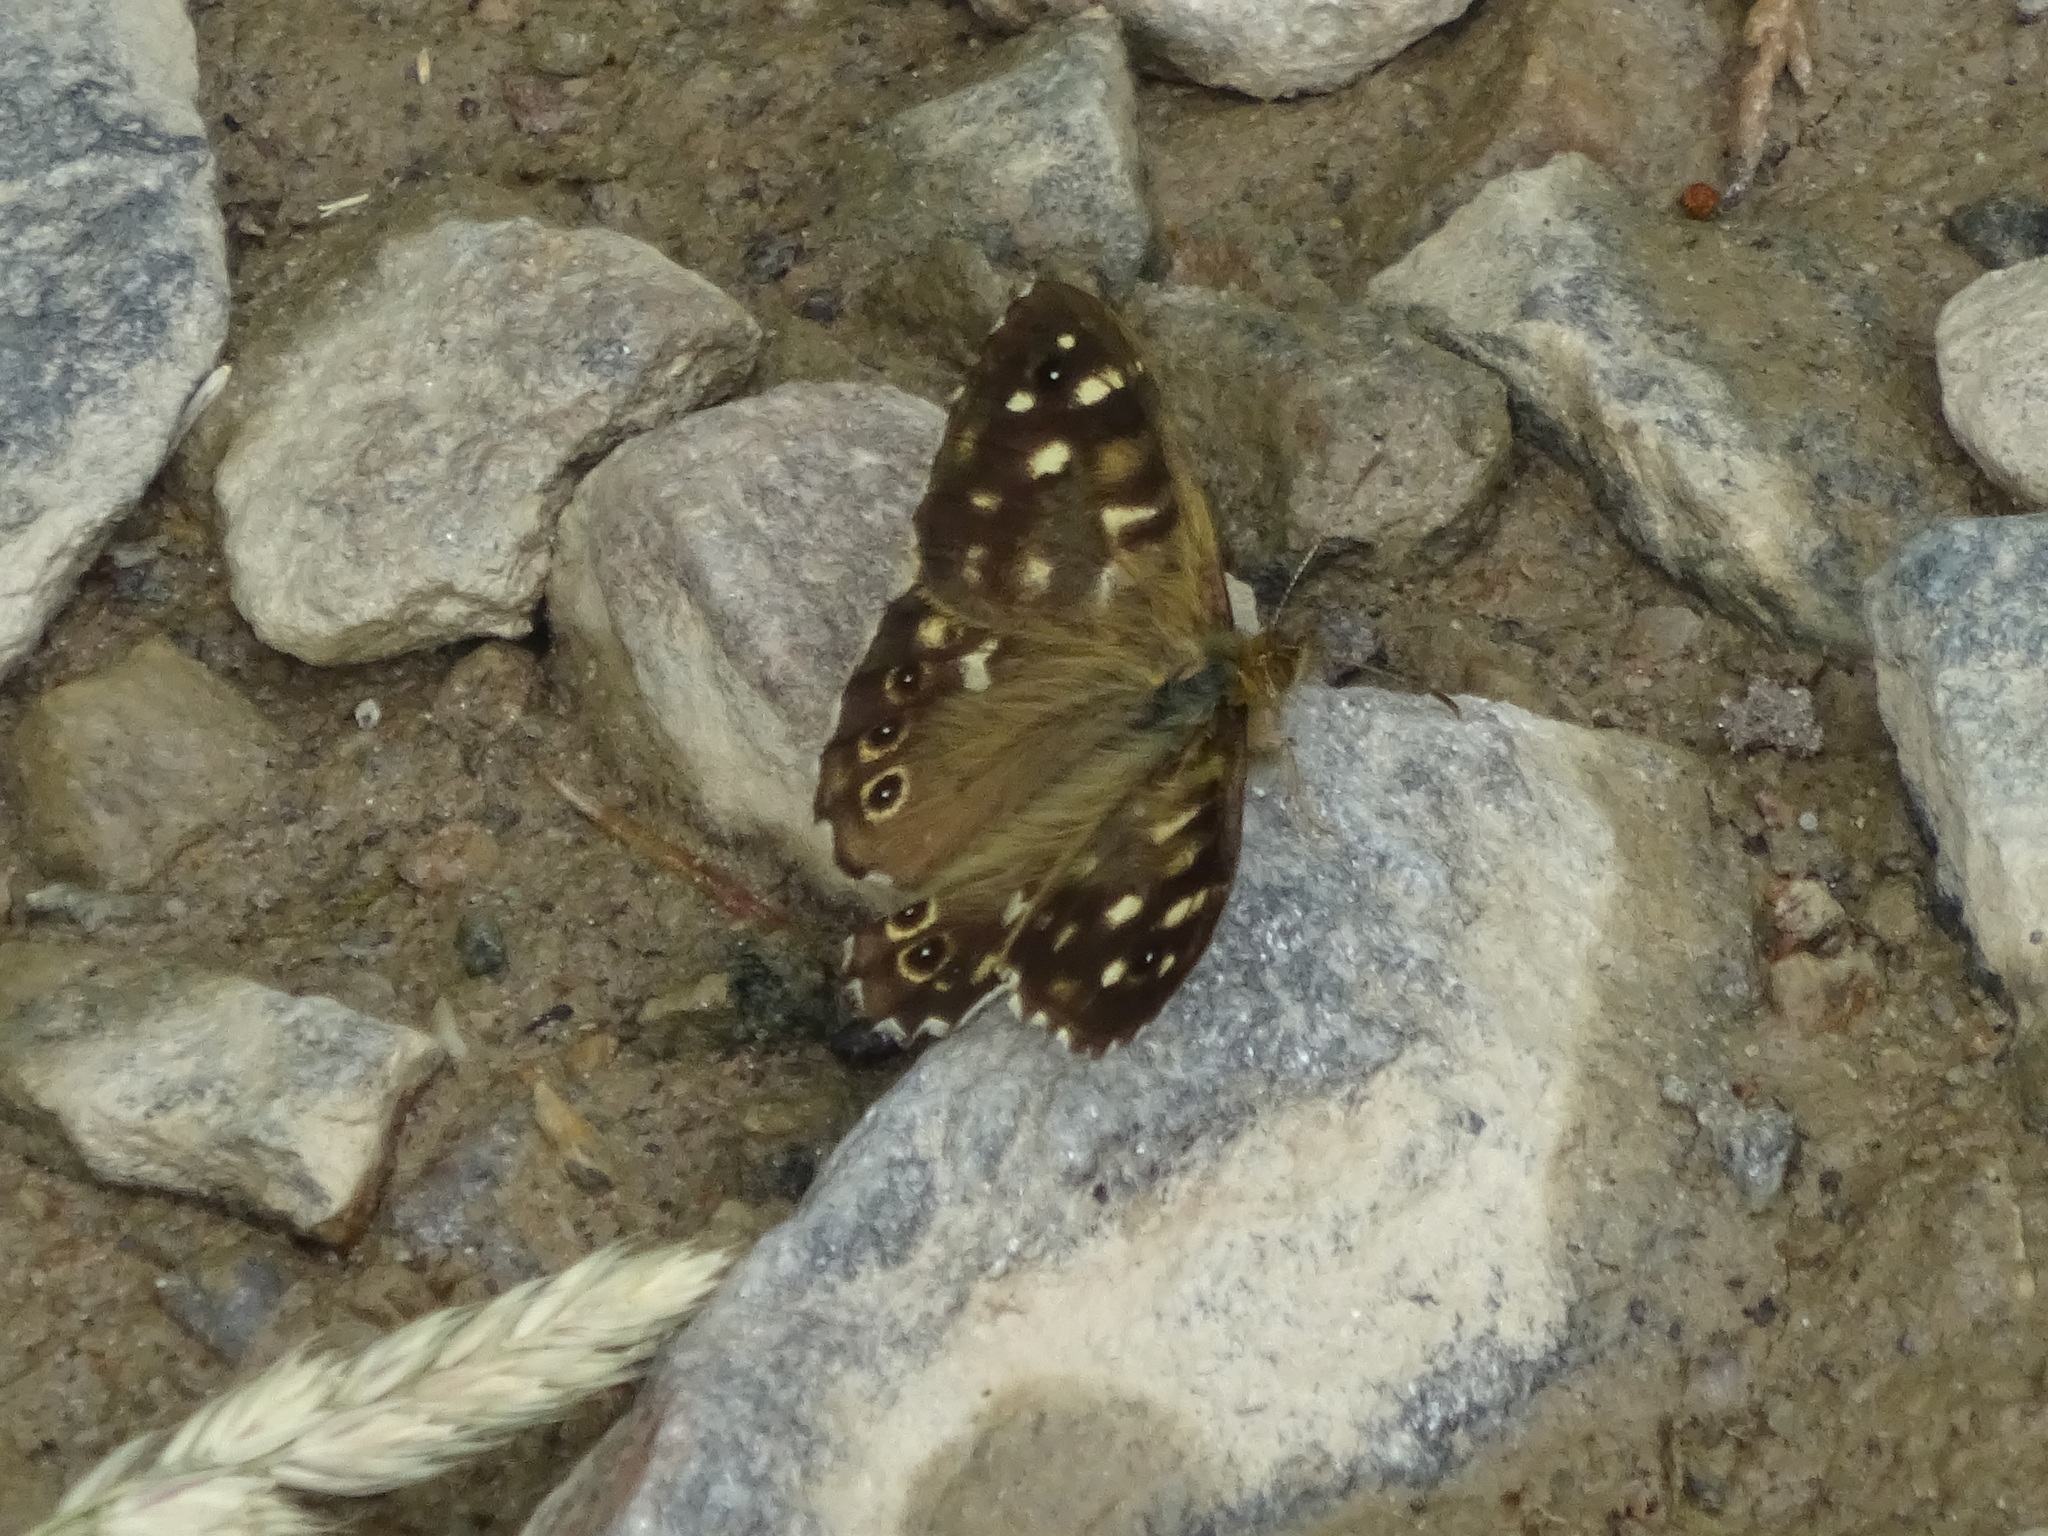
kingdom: Animalia
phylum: Arthropoda
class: Insecta
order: Lepidoptera
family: Nymphalidae
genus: Pararge
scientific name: Pararge aegeria
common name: Speckled wood
